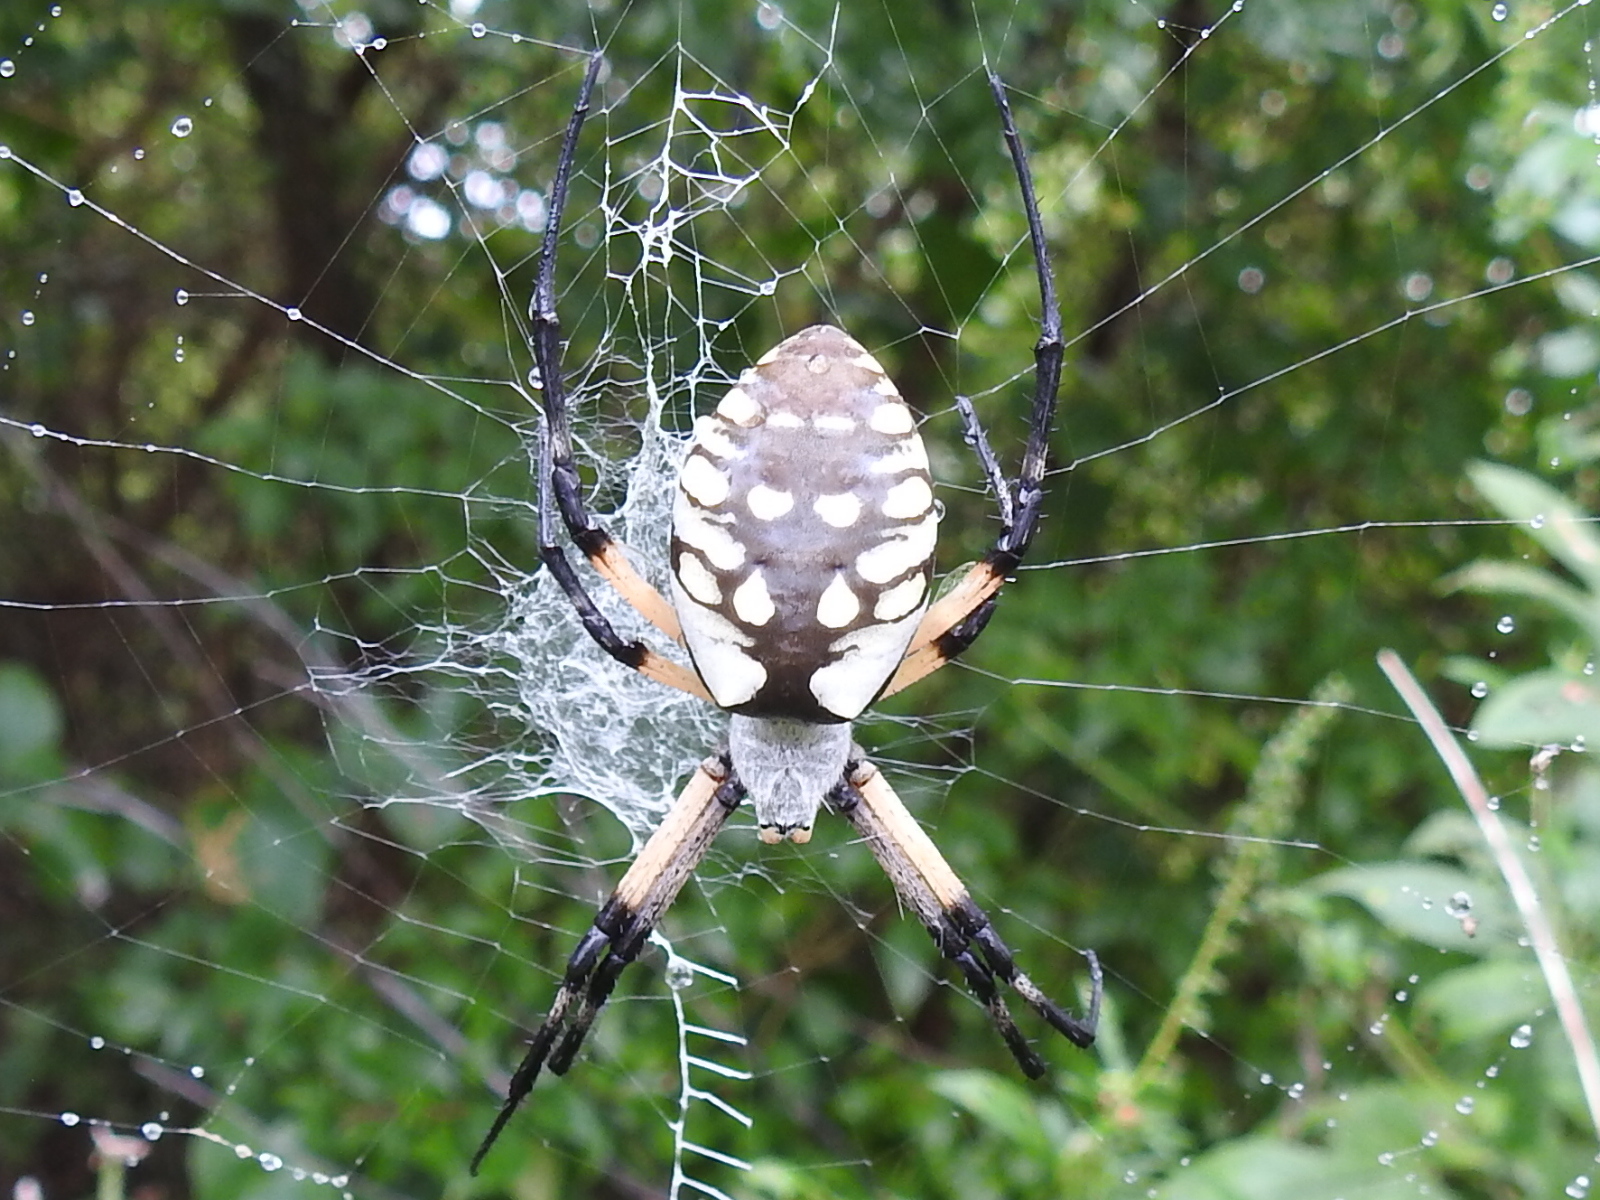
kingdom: Animalia
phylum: Arthropoda
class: Arachnida
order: Araneae
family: Araneidae
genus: Argiope
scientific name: Argiope aurantia
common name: Orb weavers
